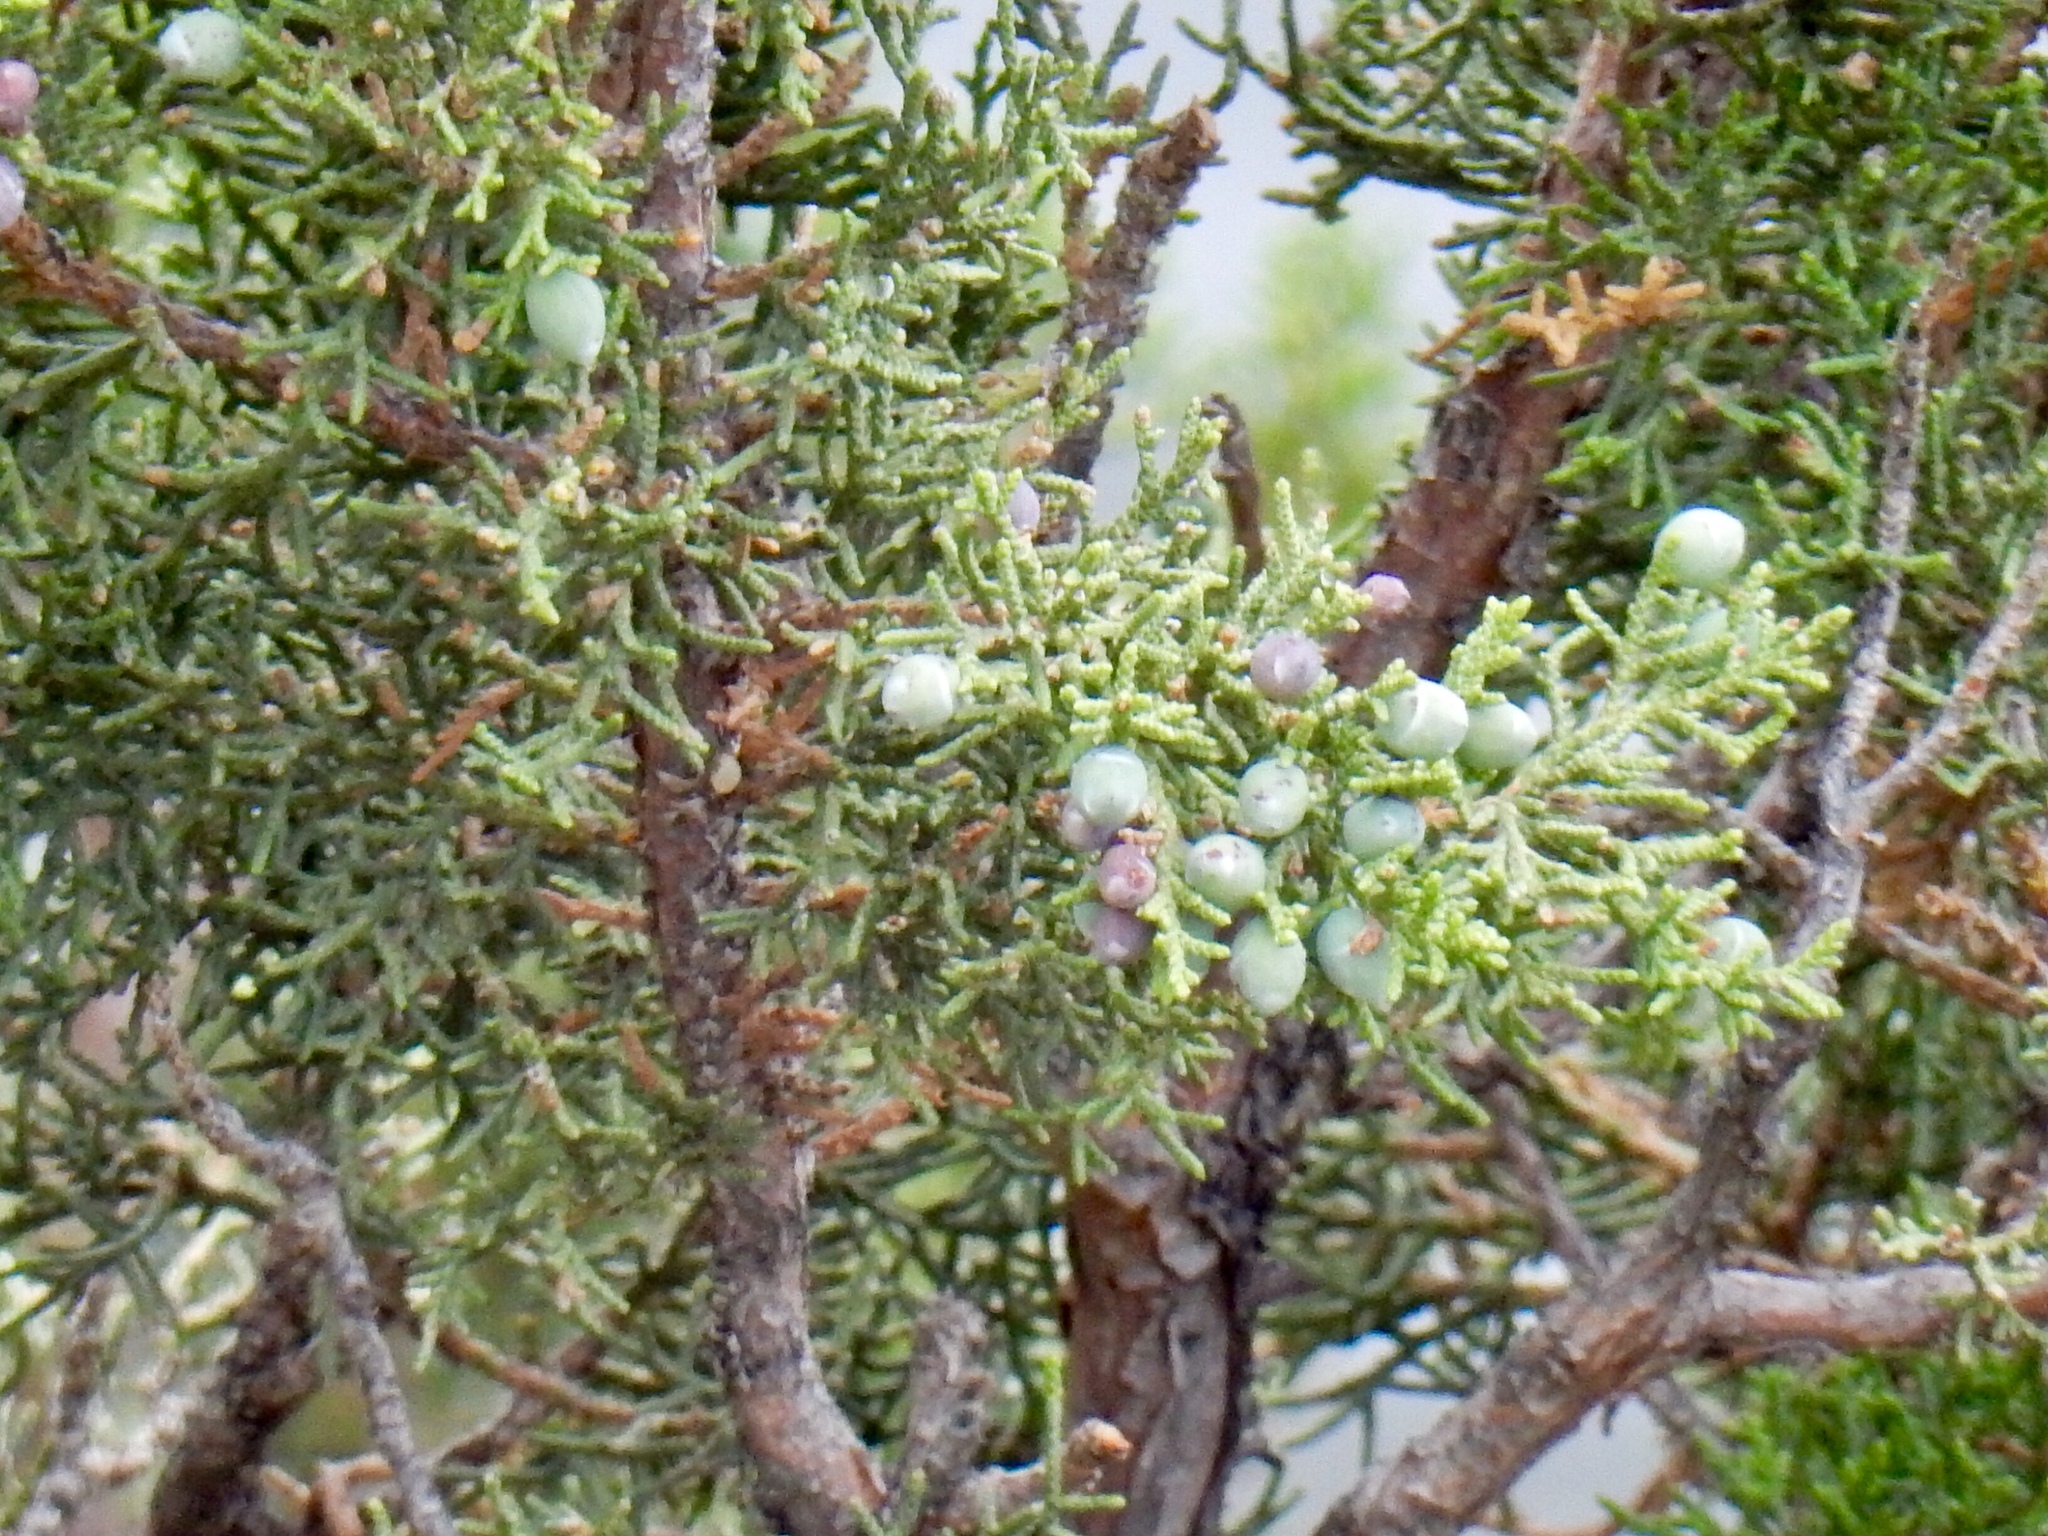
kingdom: Plantae
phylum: Tracheophyta
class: Pinopsida
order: Pinales
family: Cupressaceae
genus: Juniperus
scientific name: Juniperus deppeana
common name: Alligator juniper
